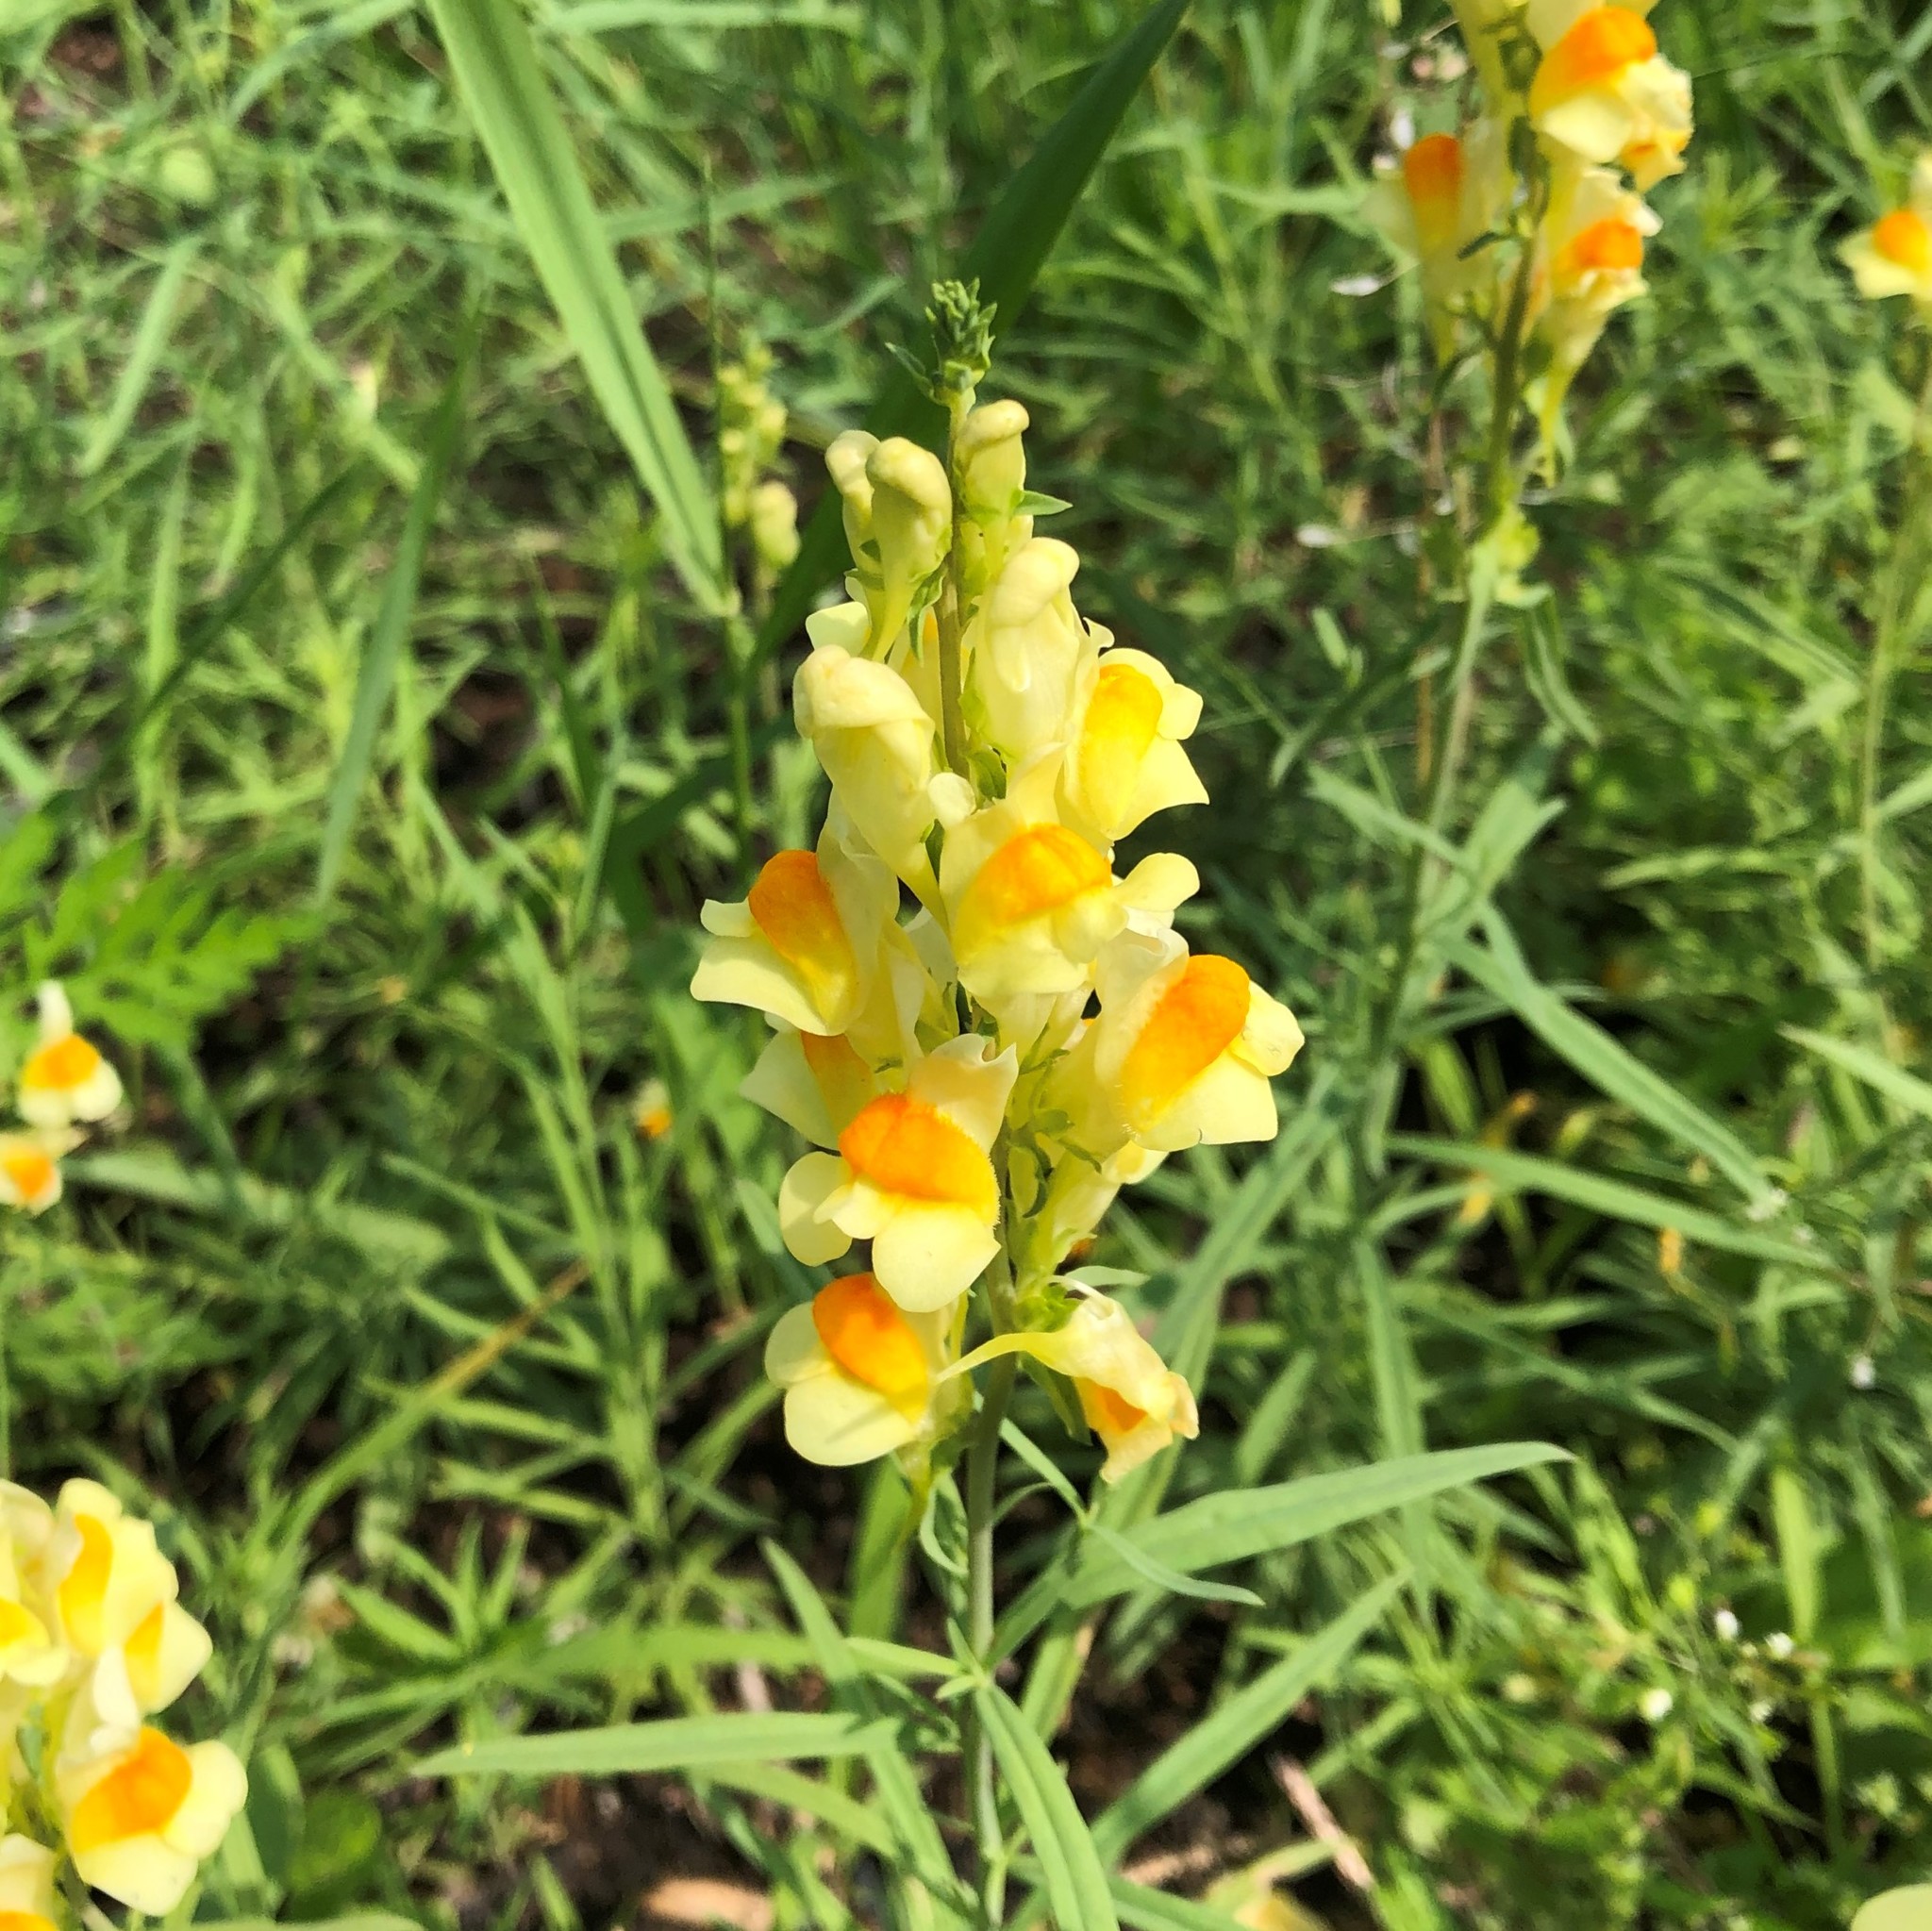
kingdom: Plantae
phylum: Tracheophyta
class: Magnoliopsida
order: Lamiales
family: Plantaginaceae
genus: Linaria
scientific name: Linaria vulgaris
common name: Butter and eggs
